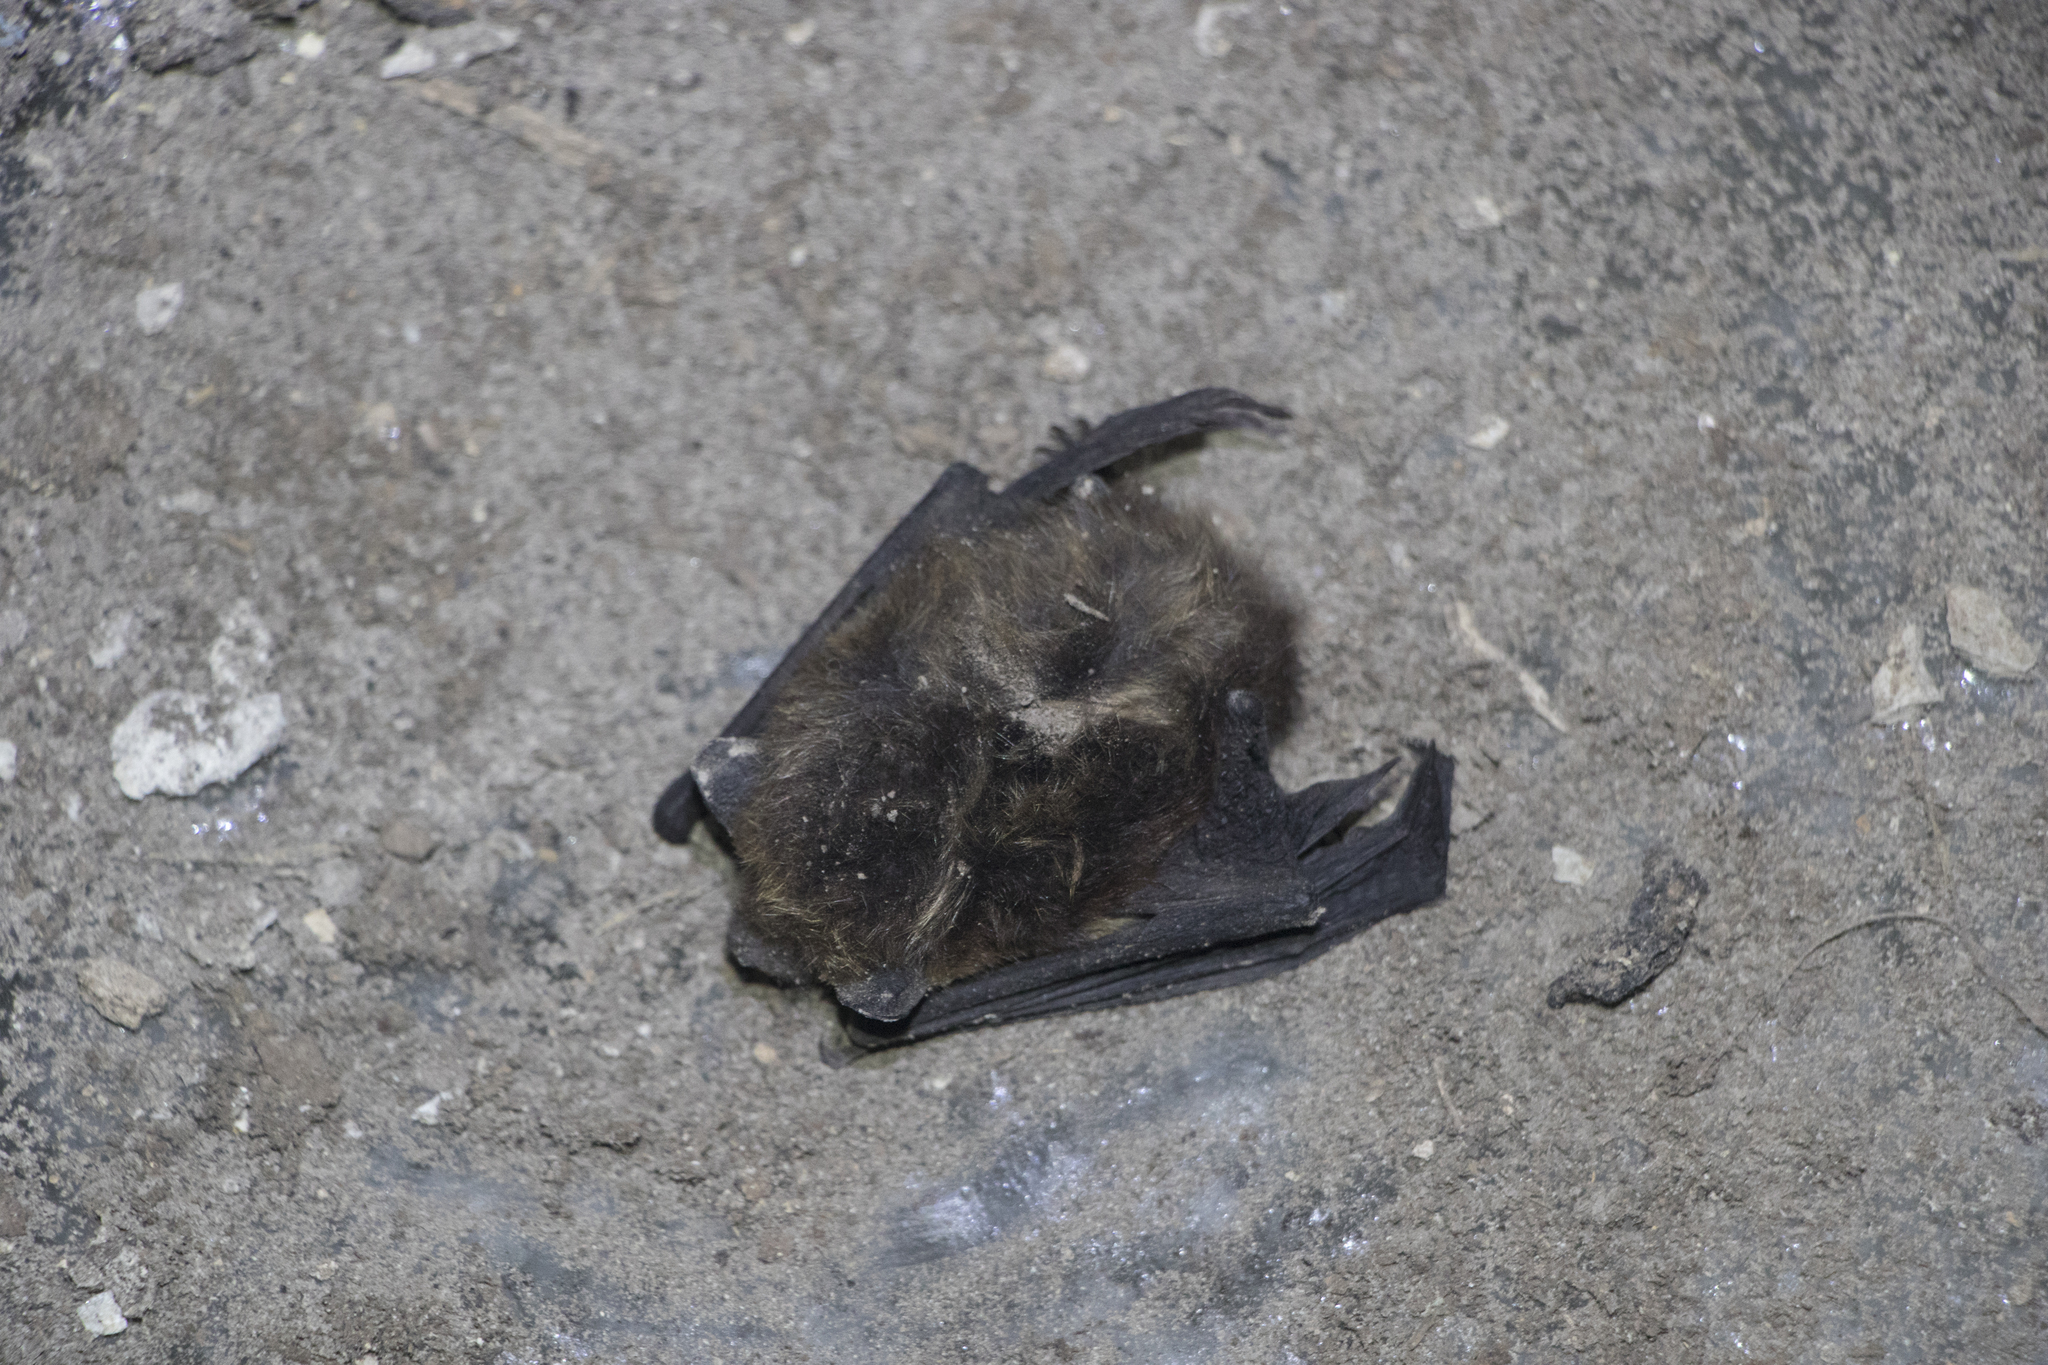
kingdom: Animalia
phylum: Chordata
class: Mammalia
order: Chiroptera
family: Vespertilionidae
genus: Eptesicus
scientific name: Eptesicus nilssonii
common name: Northern bat
